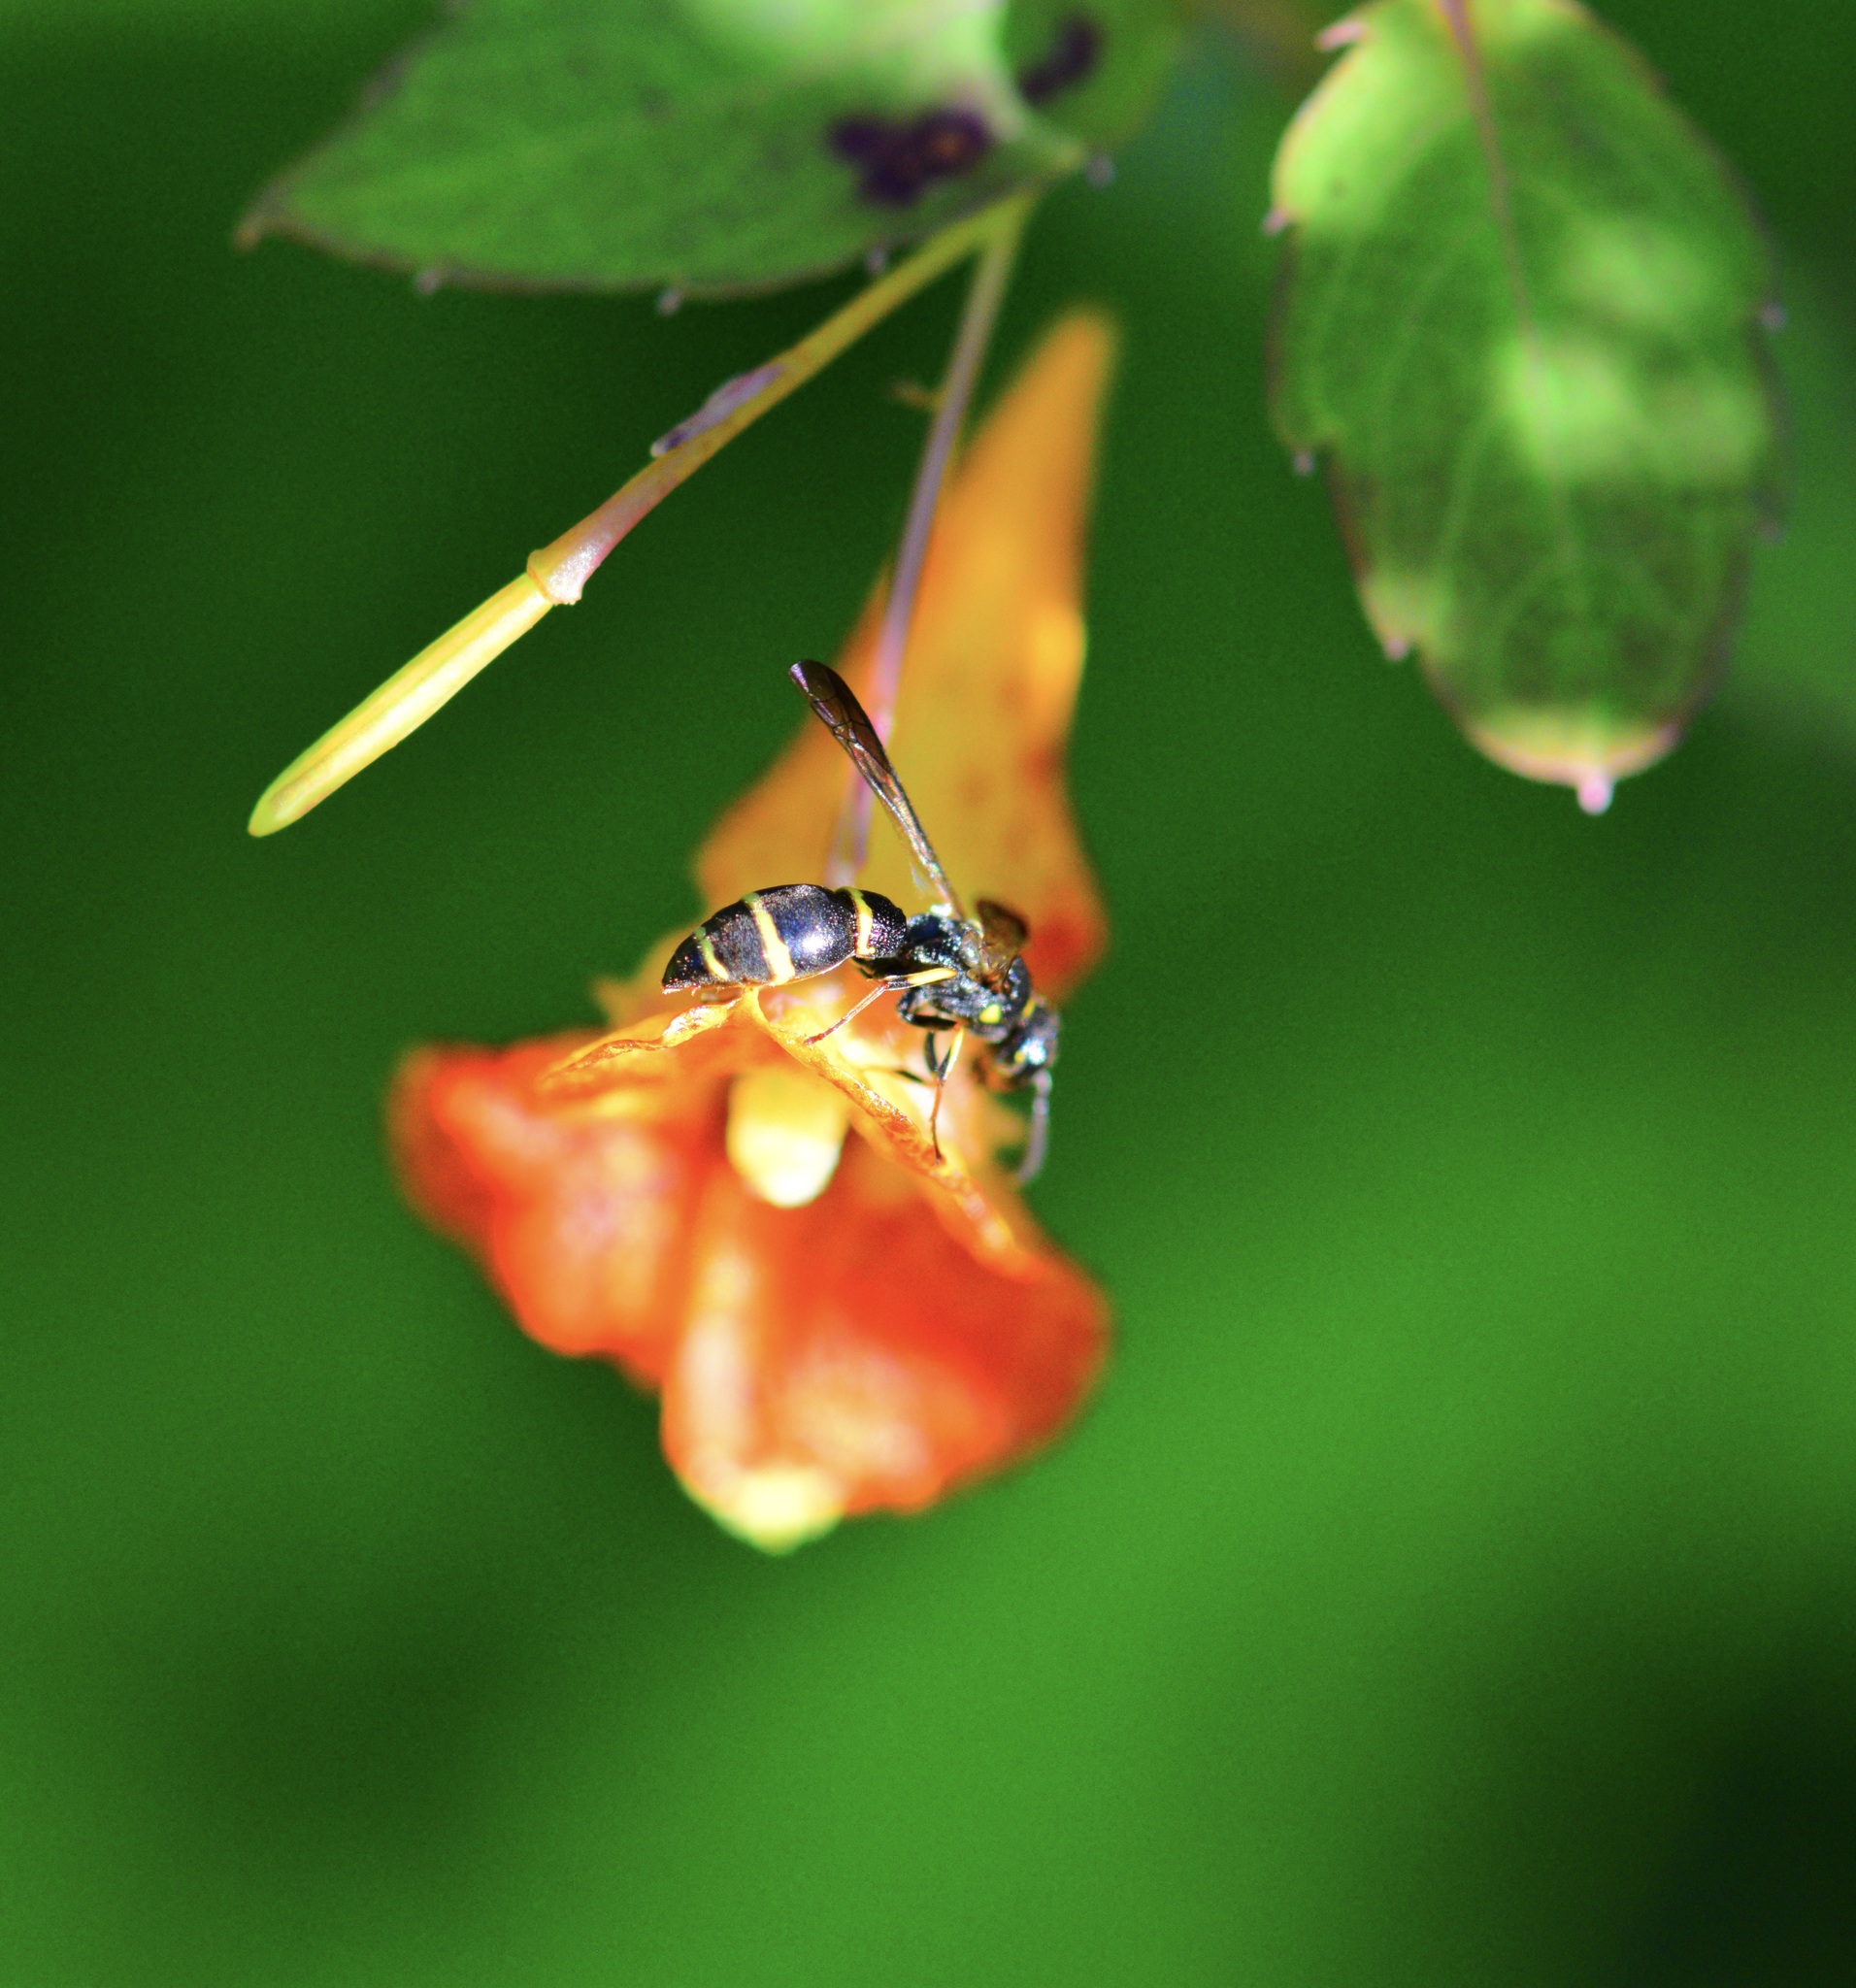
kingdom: Animalia
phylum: Arthropoda
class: Insecta
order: Hymenoptera
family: Eumenidae
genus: Symmorphus
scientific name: Symmorphus
